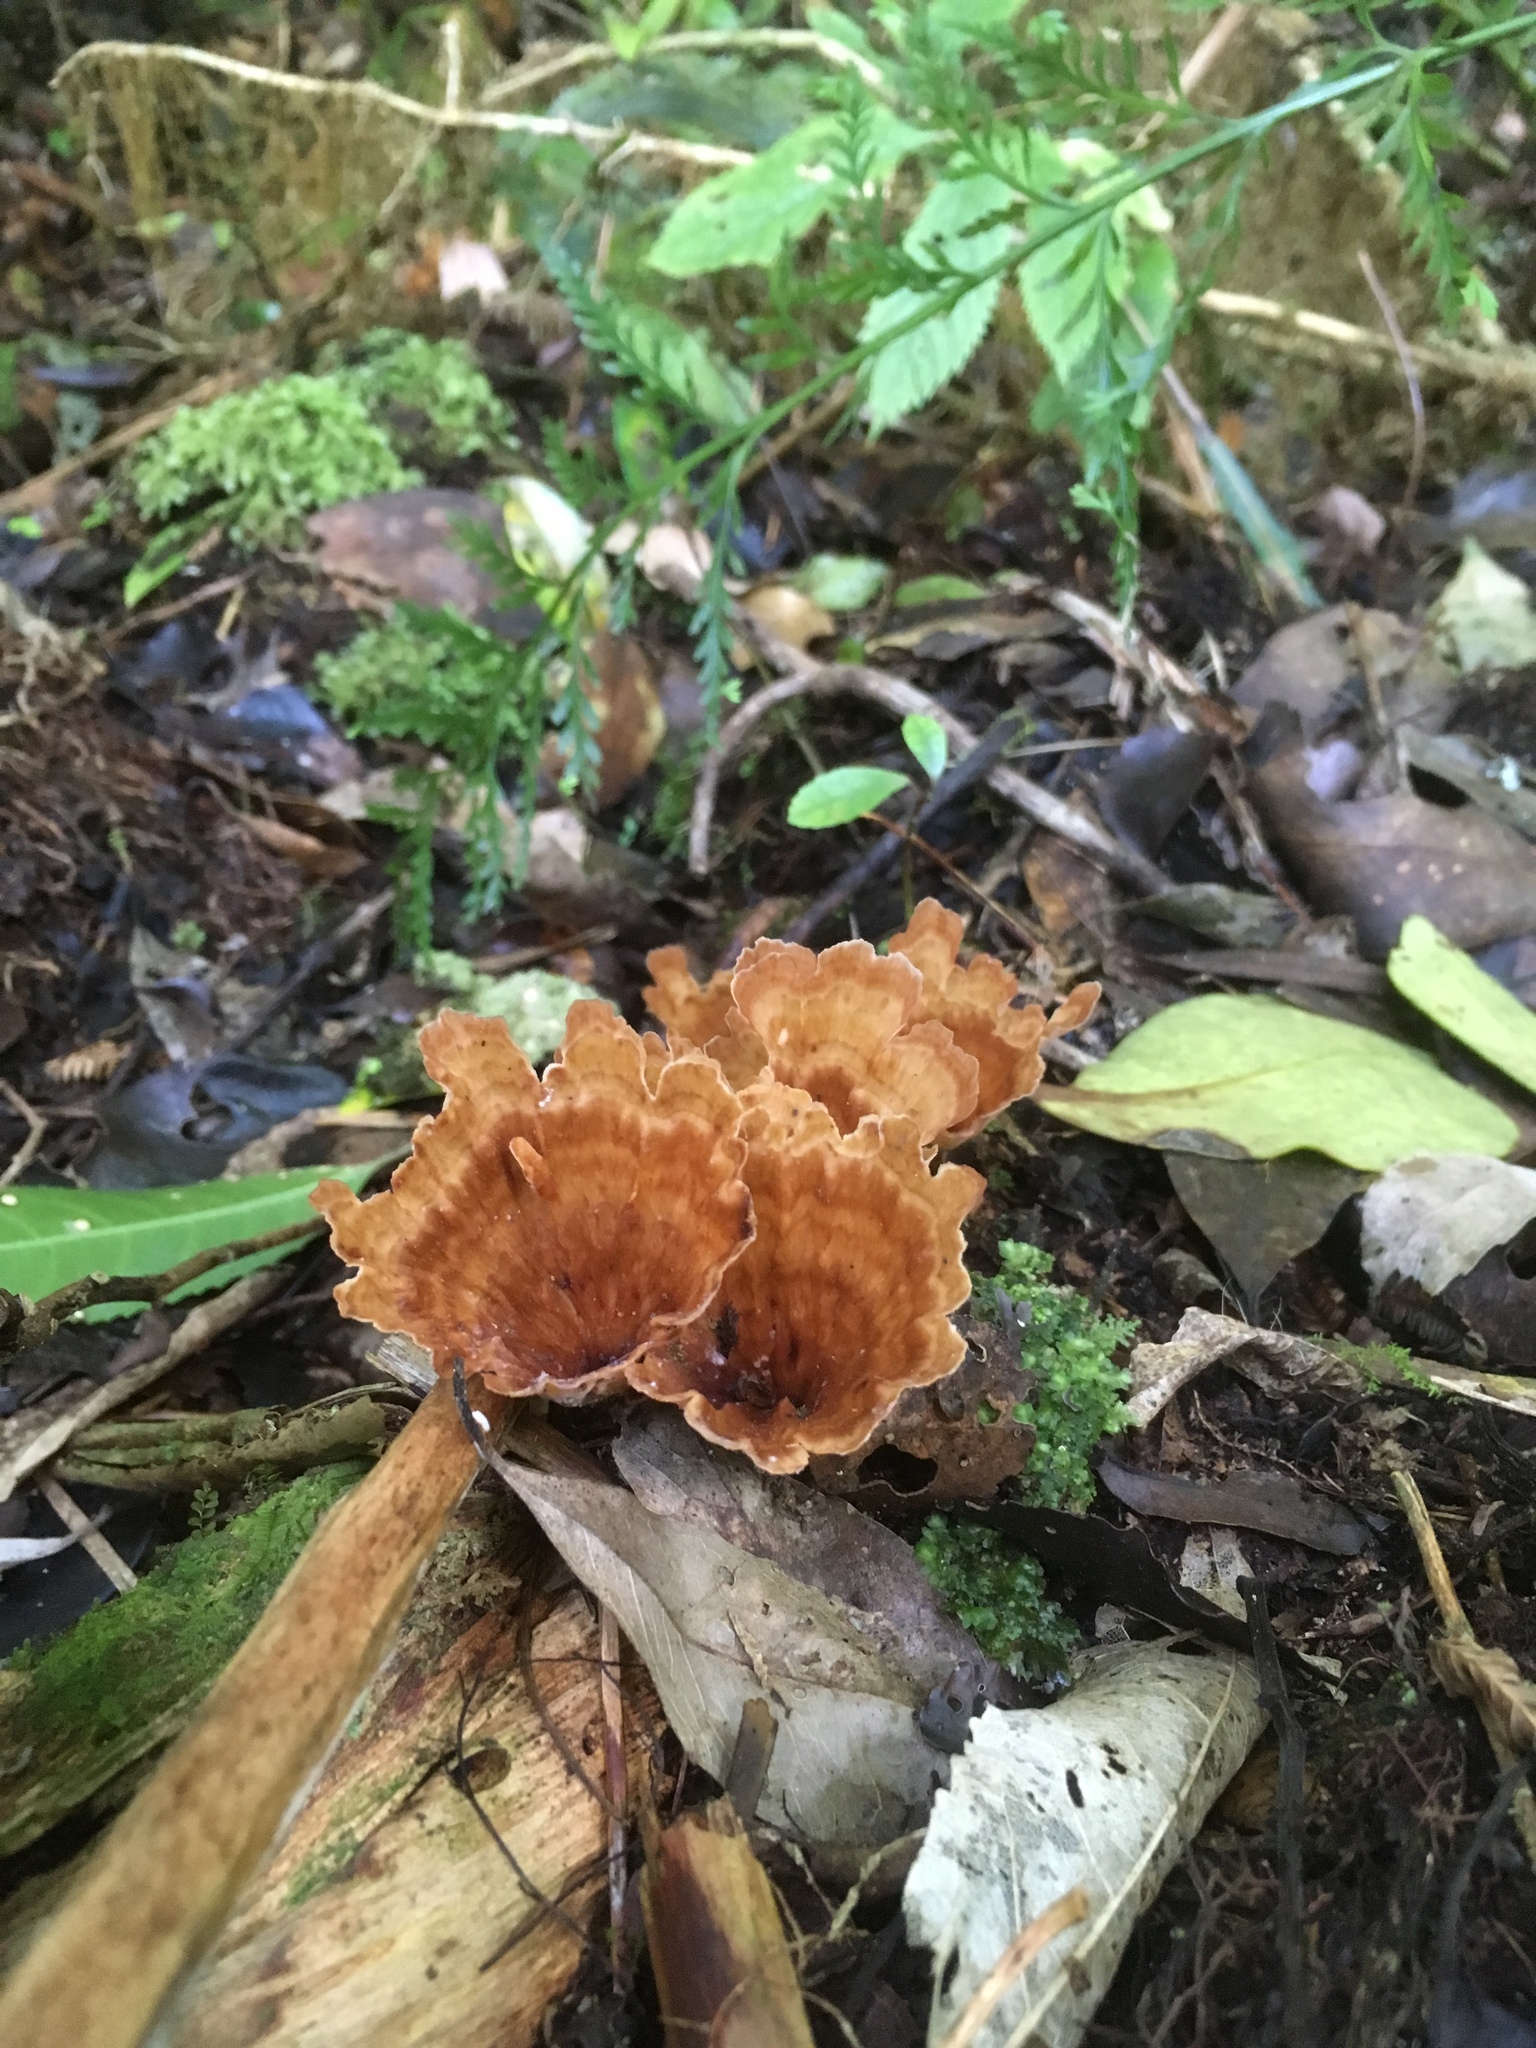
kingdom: Fungi
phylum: Basidiomycota
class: Agaricomycetes
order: Polyporales
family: Podoscyphaceae
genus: Podoscypha
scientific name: Podoscypha petalodes
